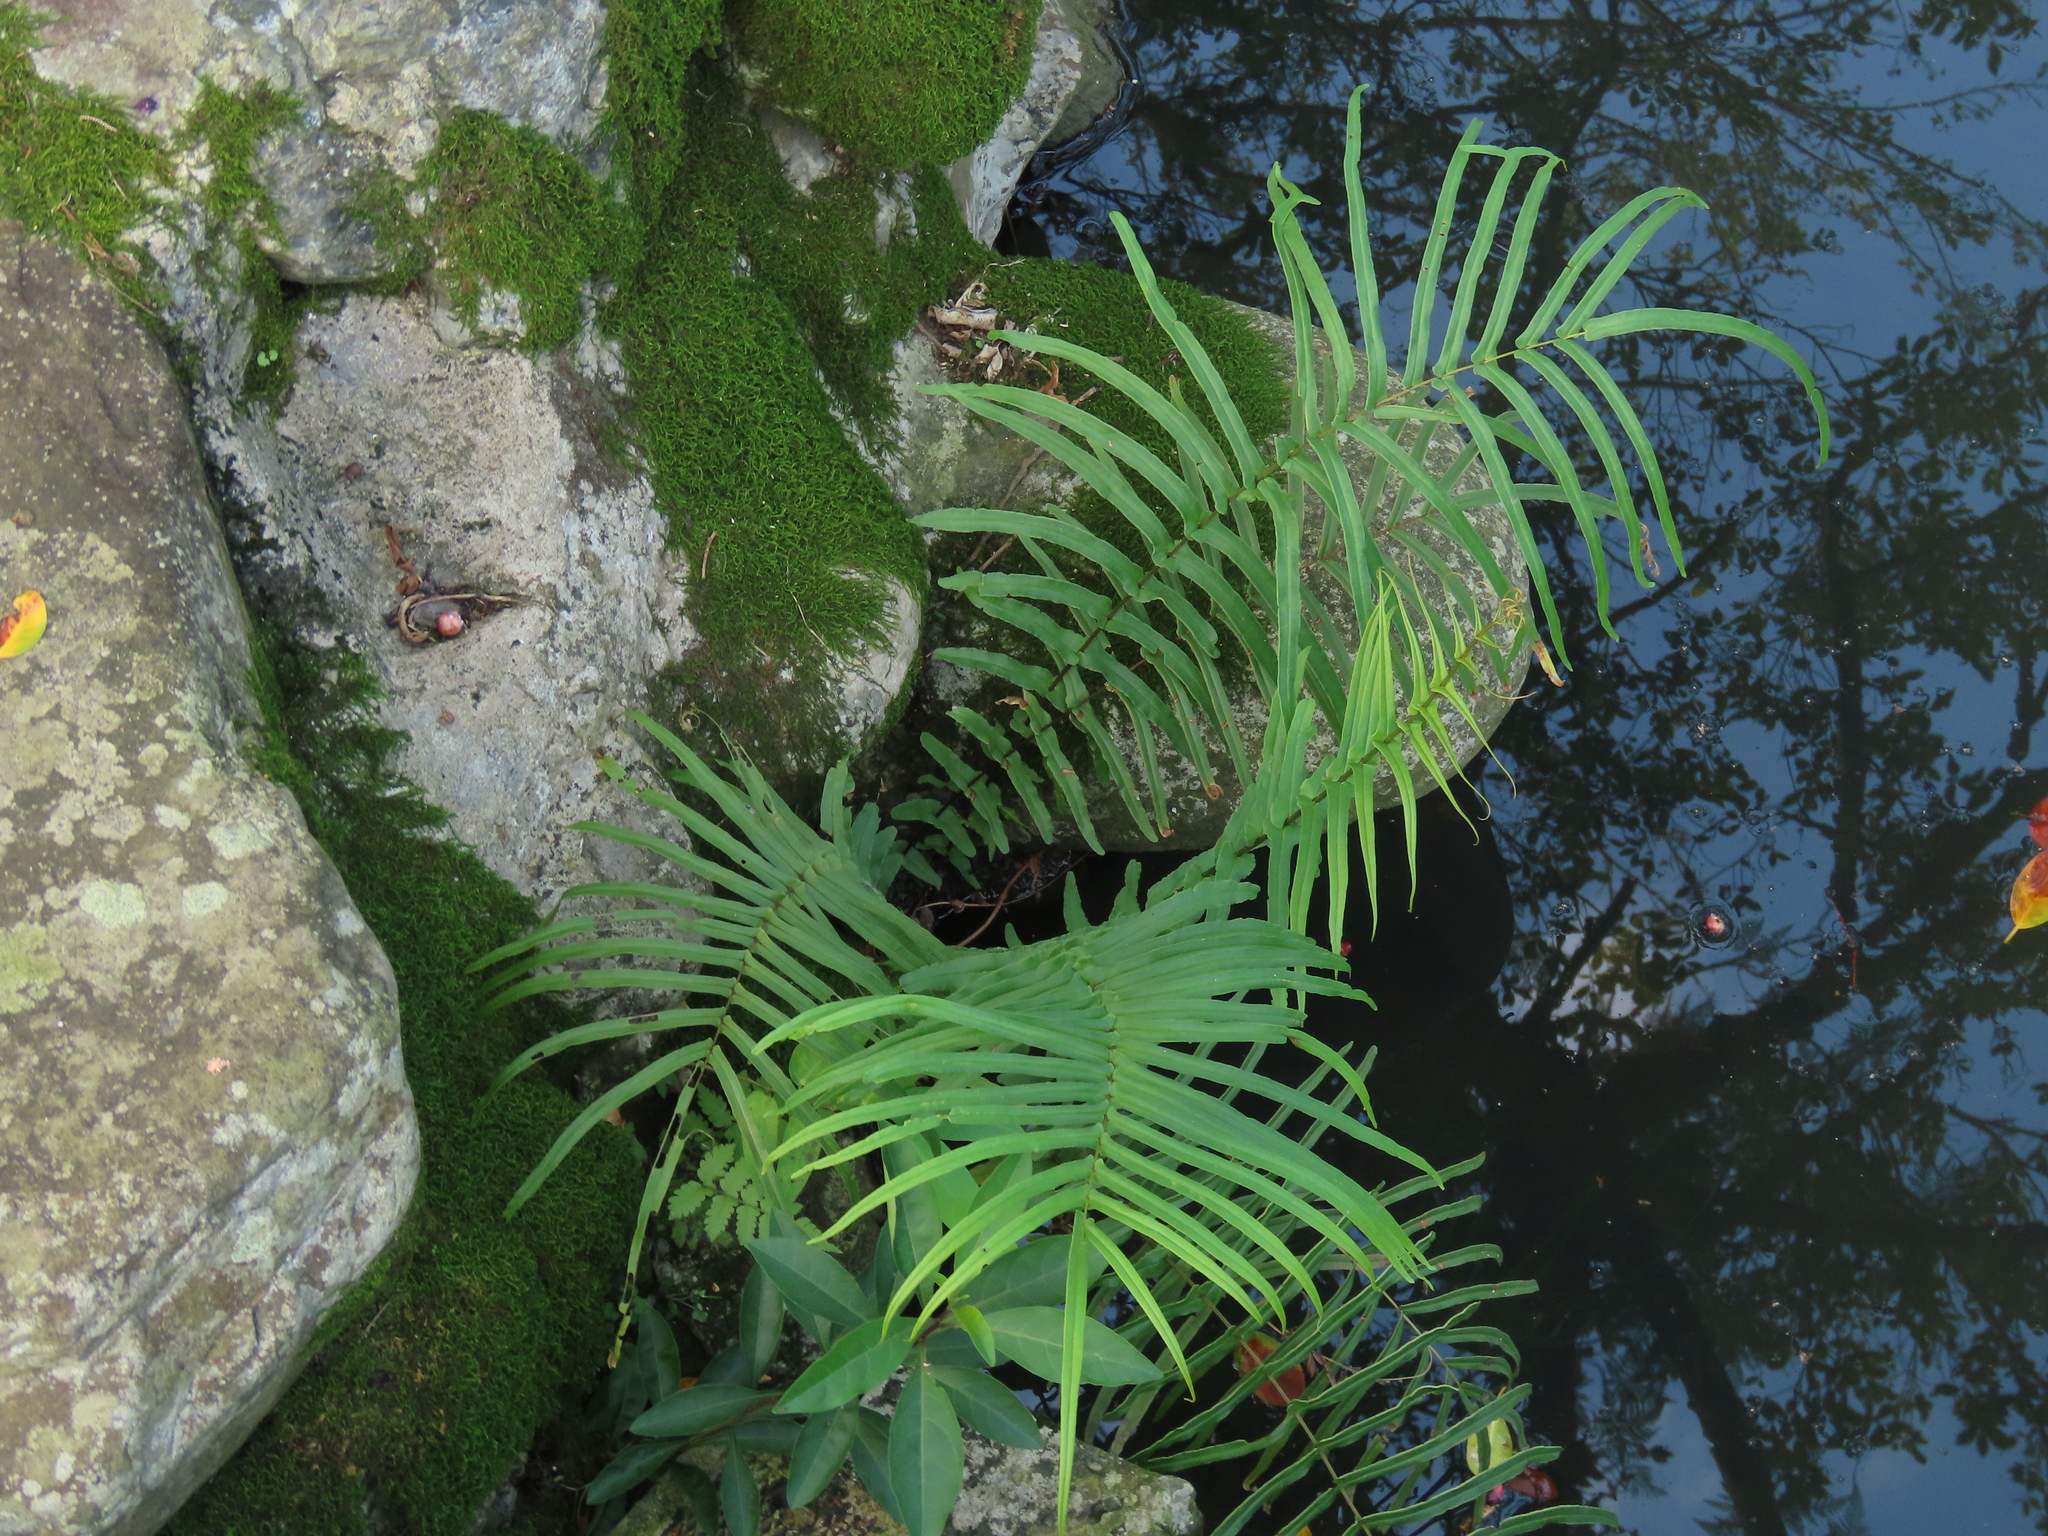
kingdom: Plantae
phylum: Tracheophyta
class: Polypodiopsida
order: Polypodiales
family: Pteridaceae
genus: Pteris
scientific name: Pteris vittata
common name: Ladder brake
